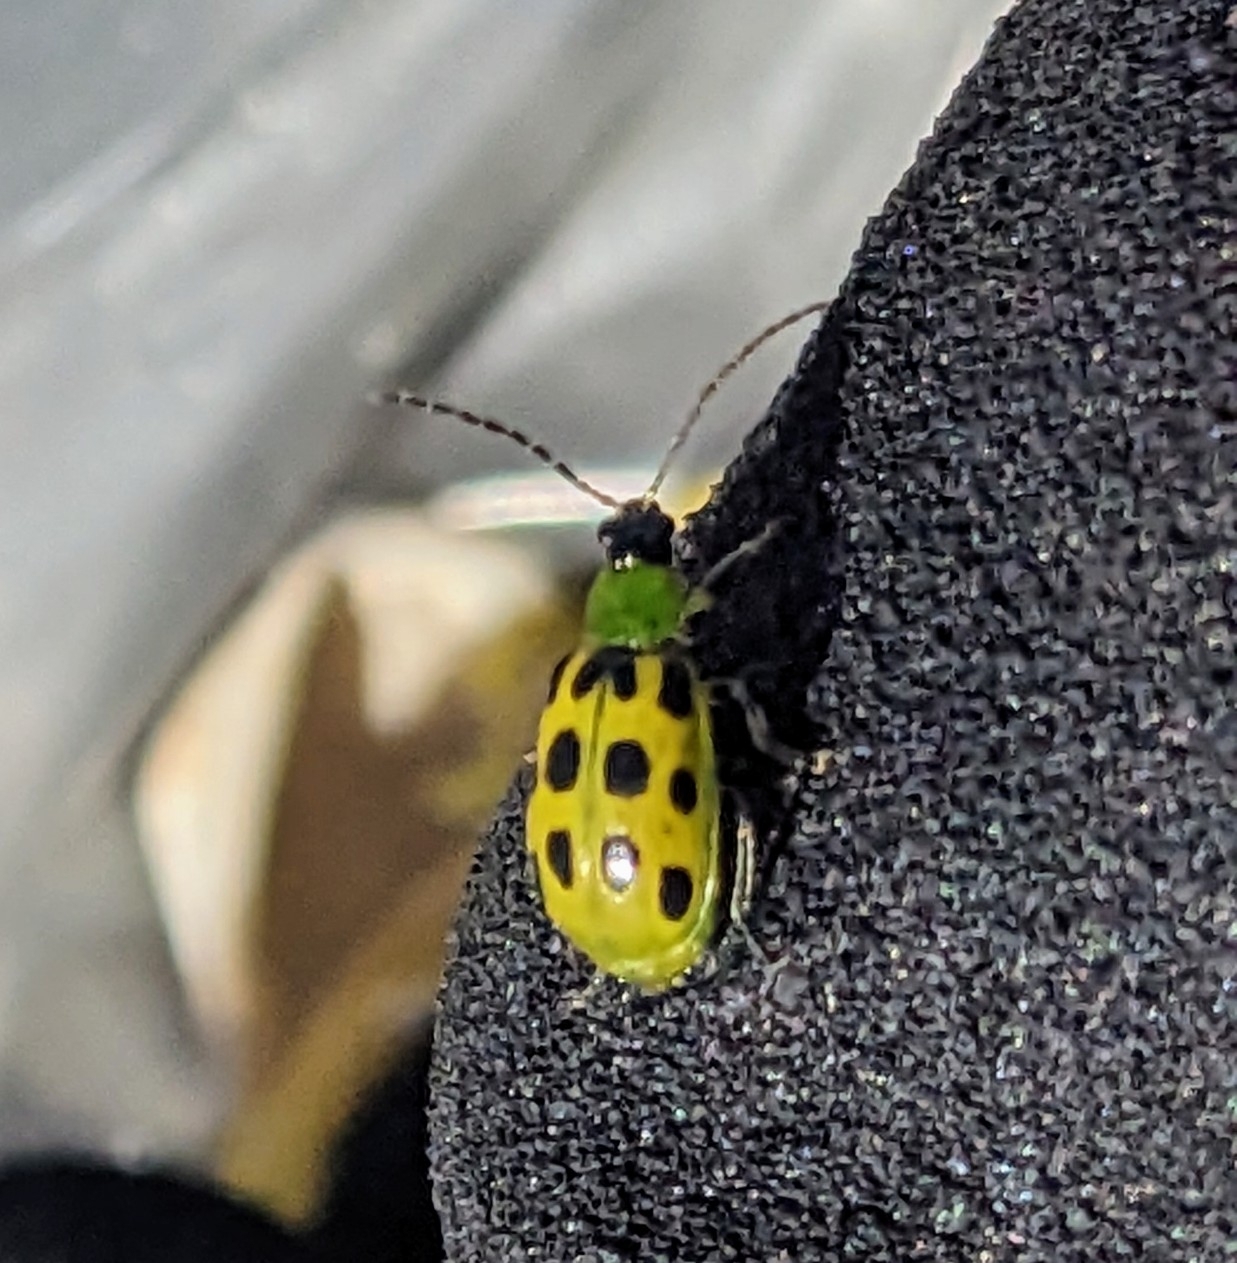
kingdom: Animalia
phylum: Arthropoda
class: Insecta
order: Coleoptera
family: Chrysomelidae
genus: Diabrotica
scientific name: Diabrotica undecimpunctata
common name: Spotted cucumber beetle
